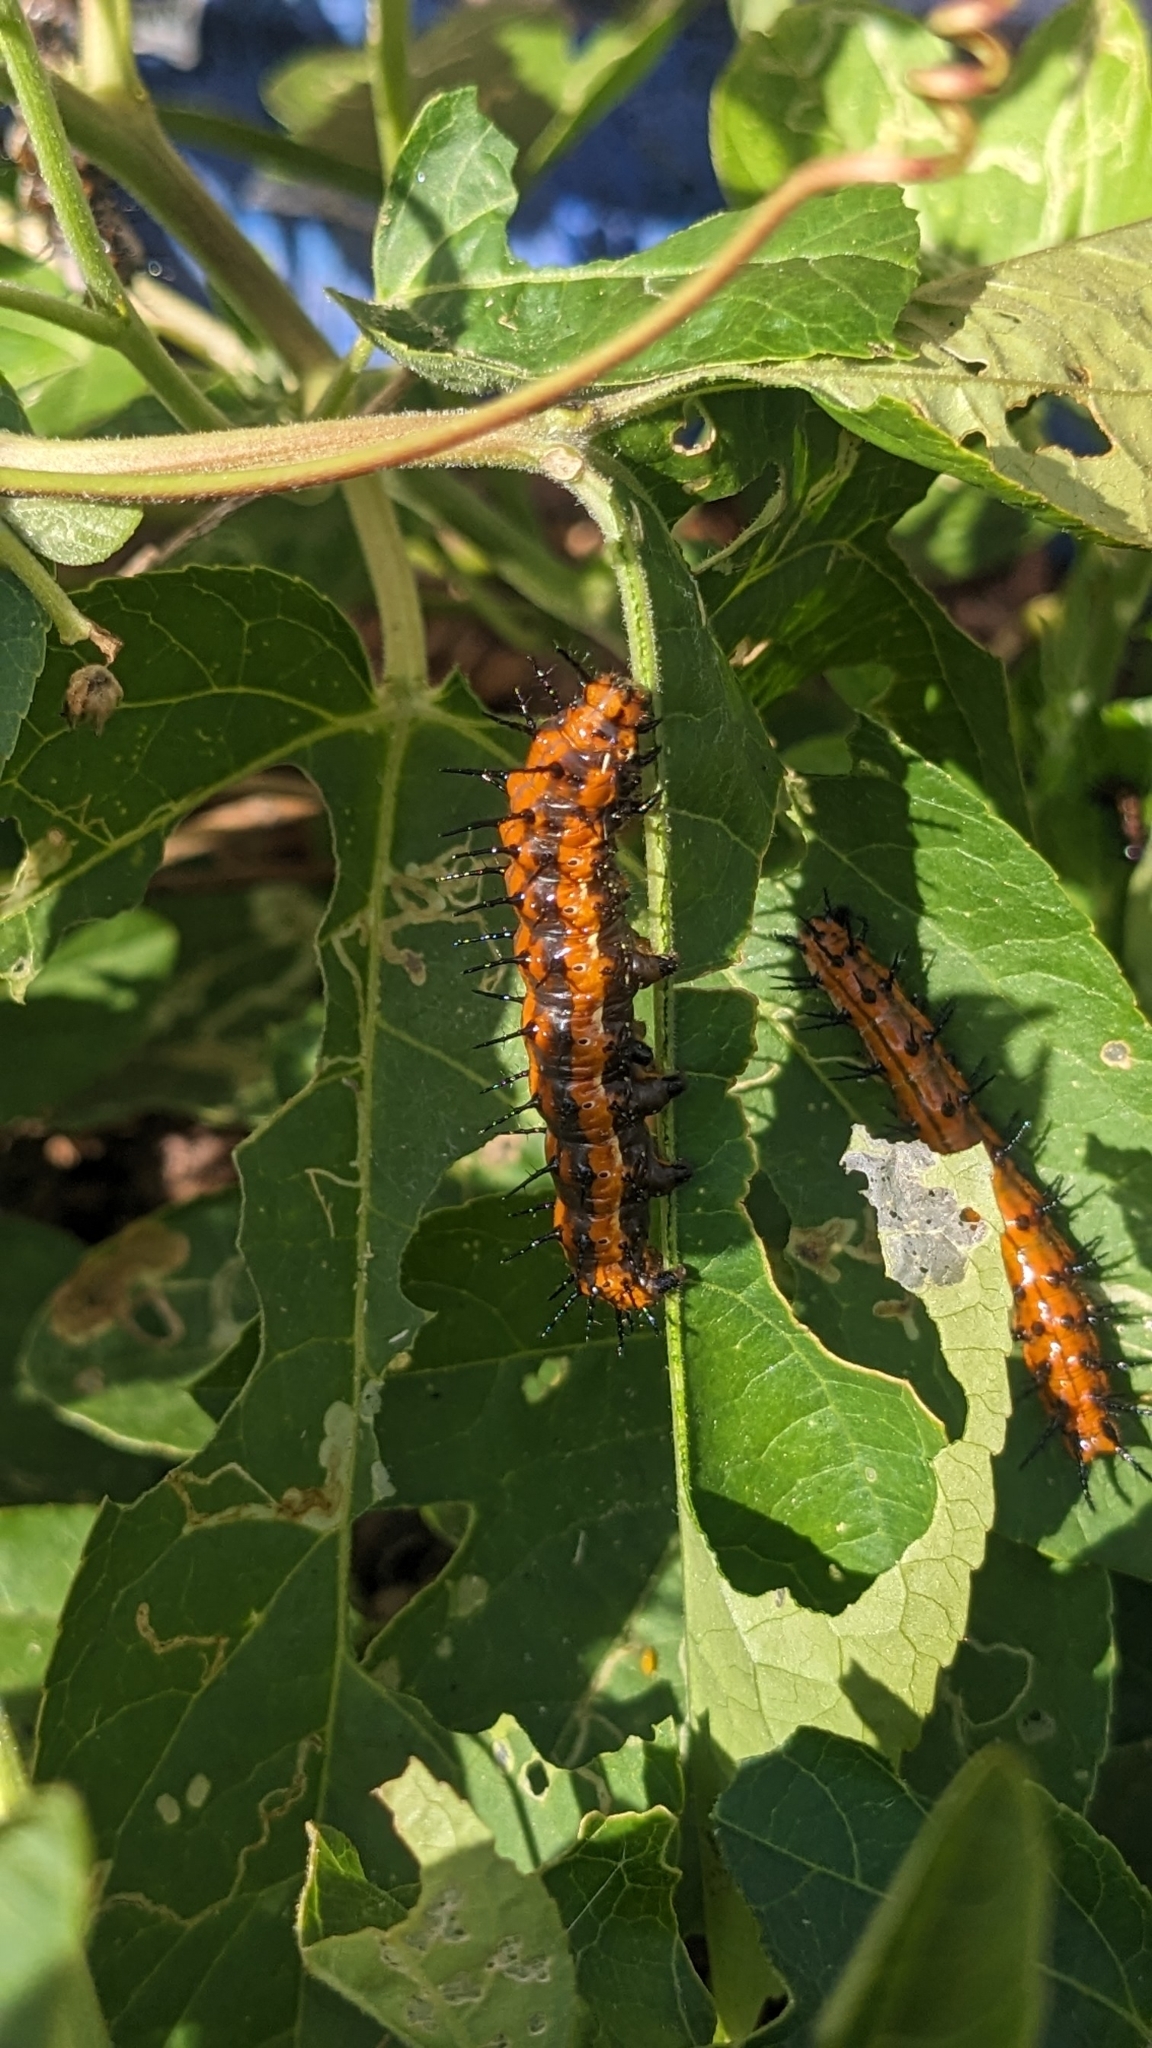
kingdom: Animalia
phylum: Arthropoda
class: Insecta
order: Lepidoptera
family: Nymphalidae
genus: Dione
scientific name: Dione vanillae
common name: Gulf fritillary
